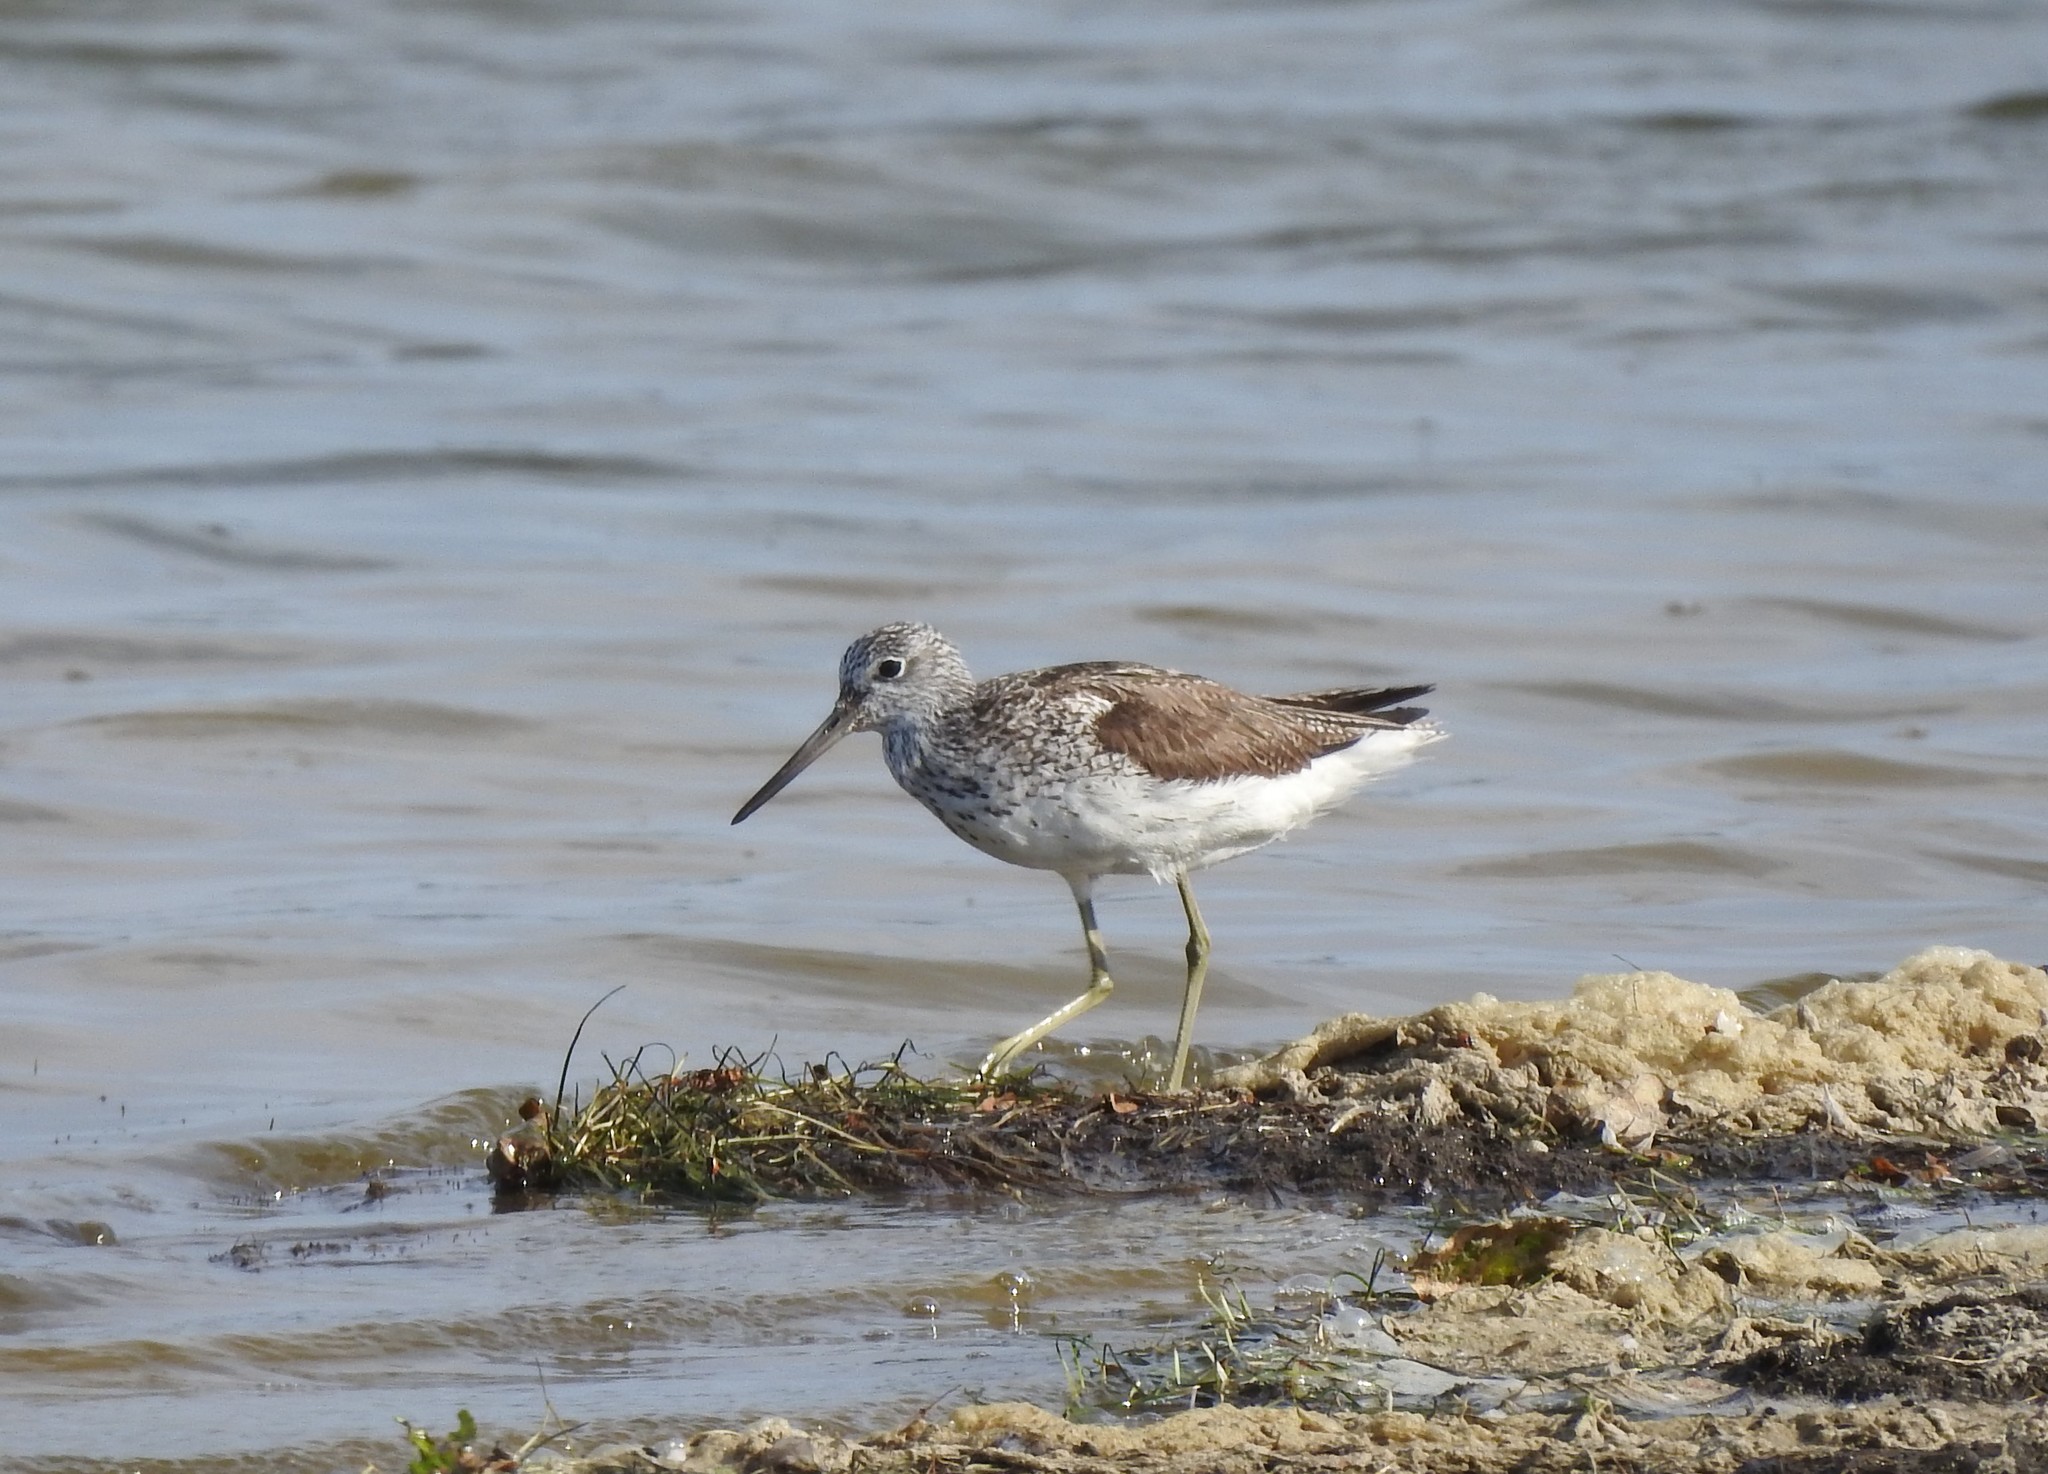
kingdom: Animalia
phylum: Chordata
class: Aves
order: Charadriiformes
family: Scolopacidae
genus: Tringa
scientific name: Tringa nebularia
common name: Common greenshank
